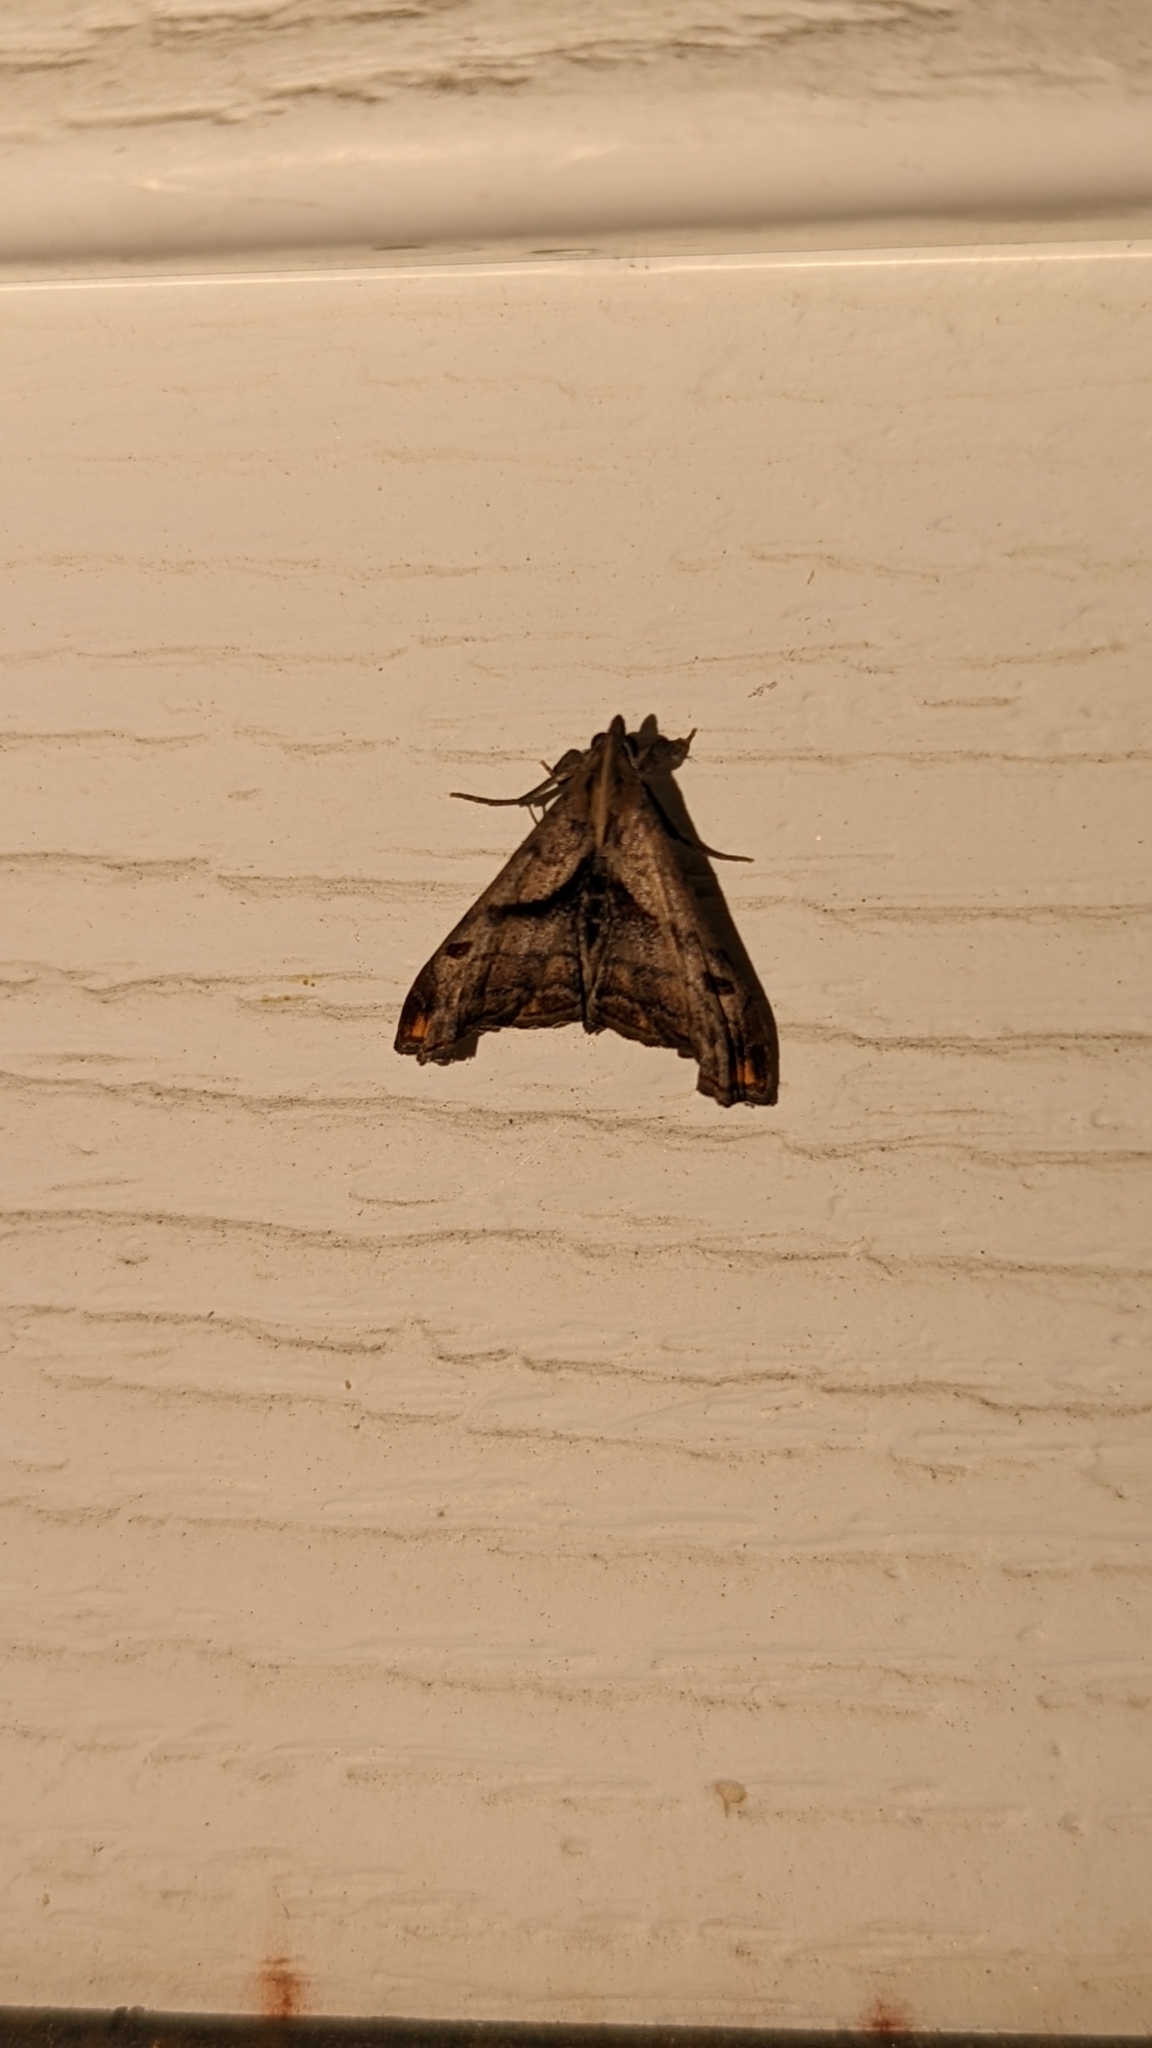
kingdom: Animalia
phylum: Arthropoda
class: Insecta
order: Lepidoptera
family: Erebidae
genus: Palthis
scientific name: Palthis angulalis
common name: Dark-spotted palthis moth
